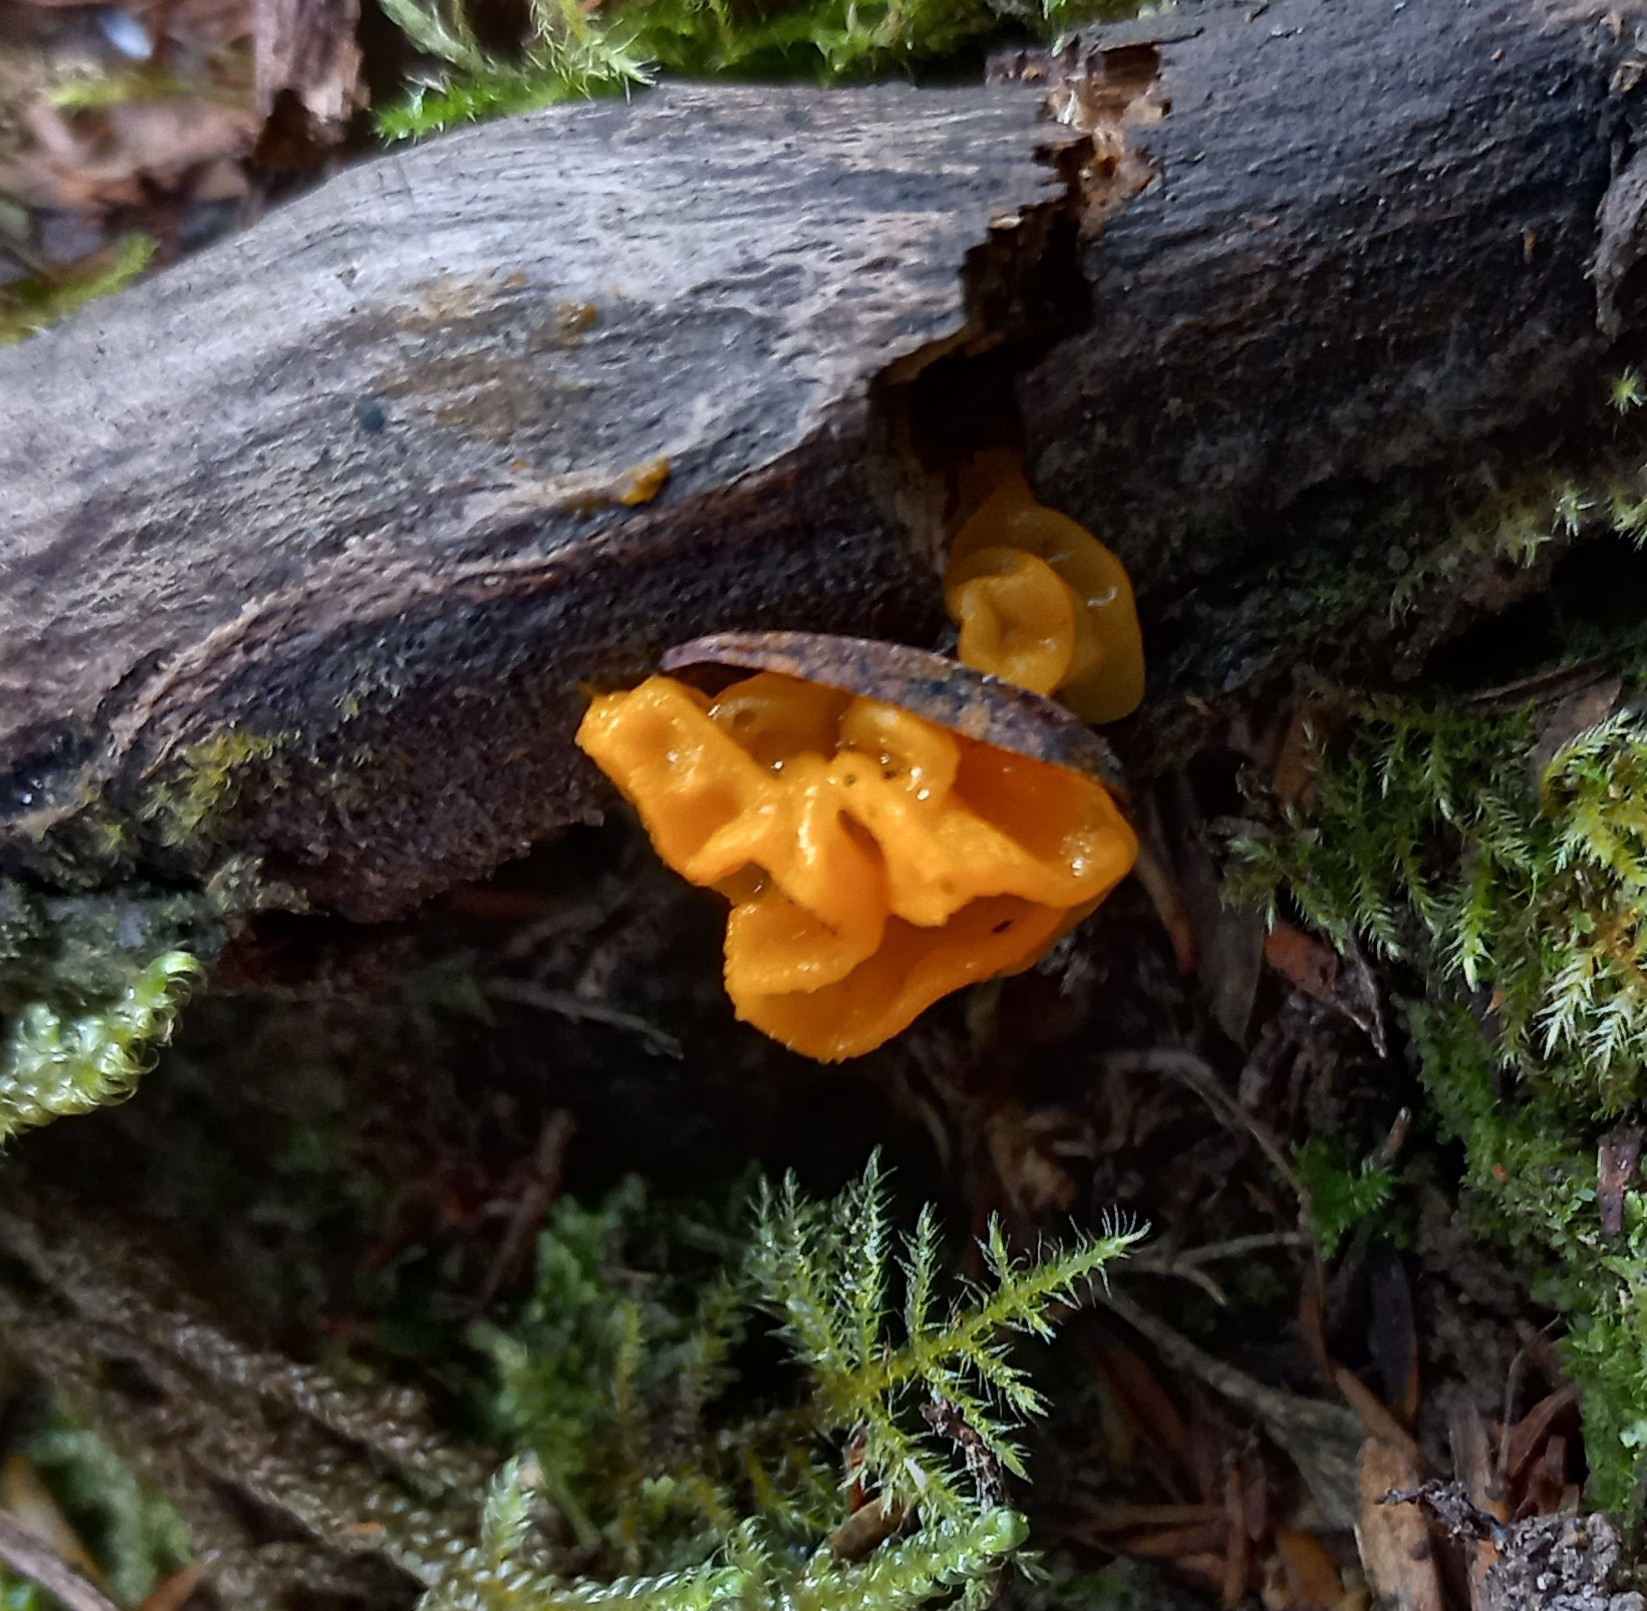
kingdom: Fungi
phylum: Basidiomycota
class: Tremellomycetes
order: Tremellales
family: Tremellaceae
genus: Tremella
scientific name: Tremella mesenterica
